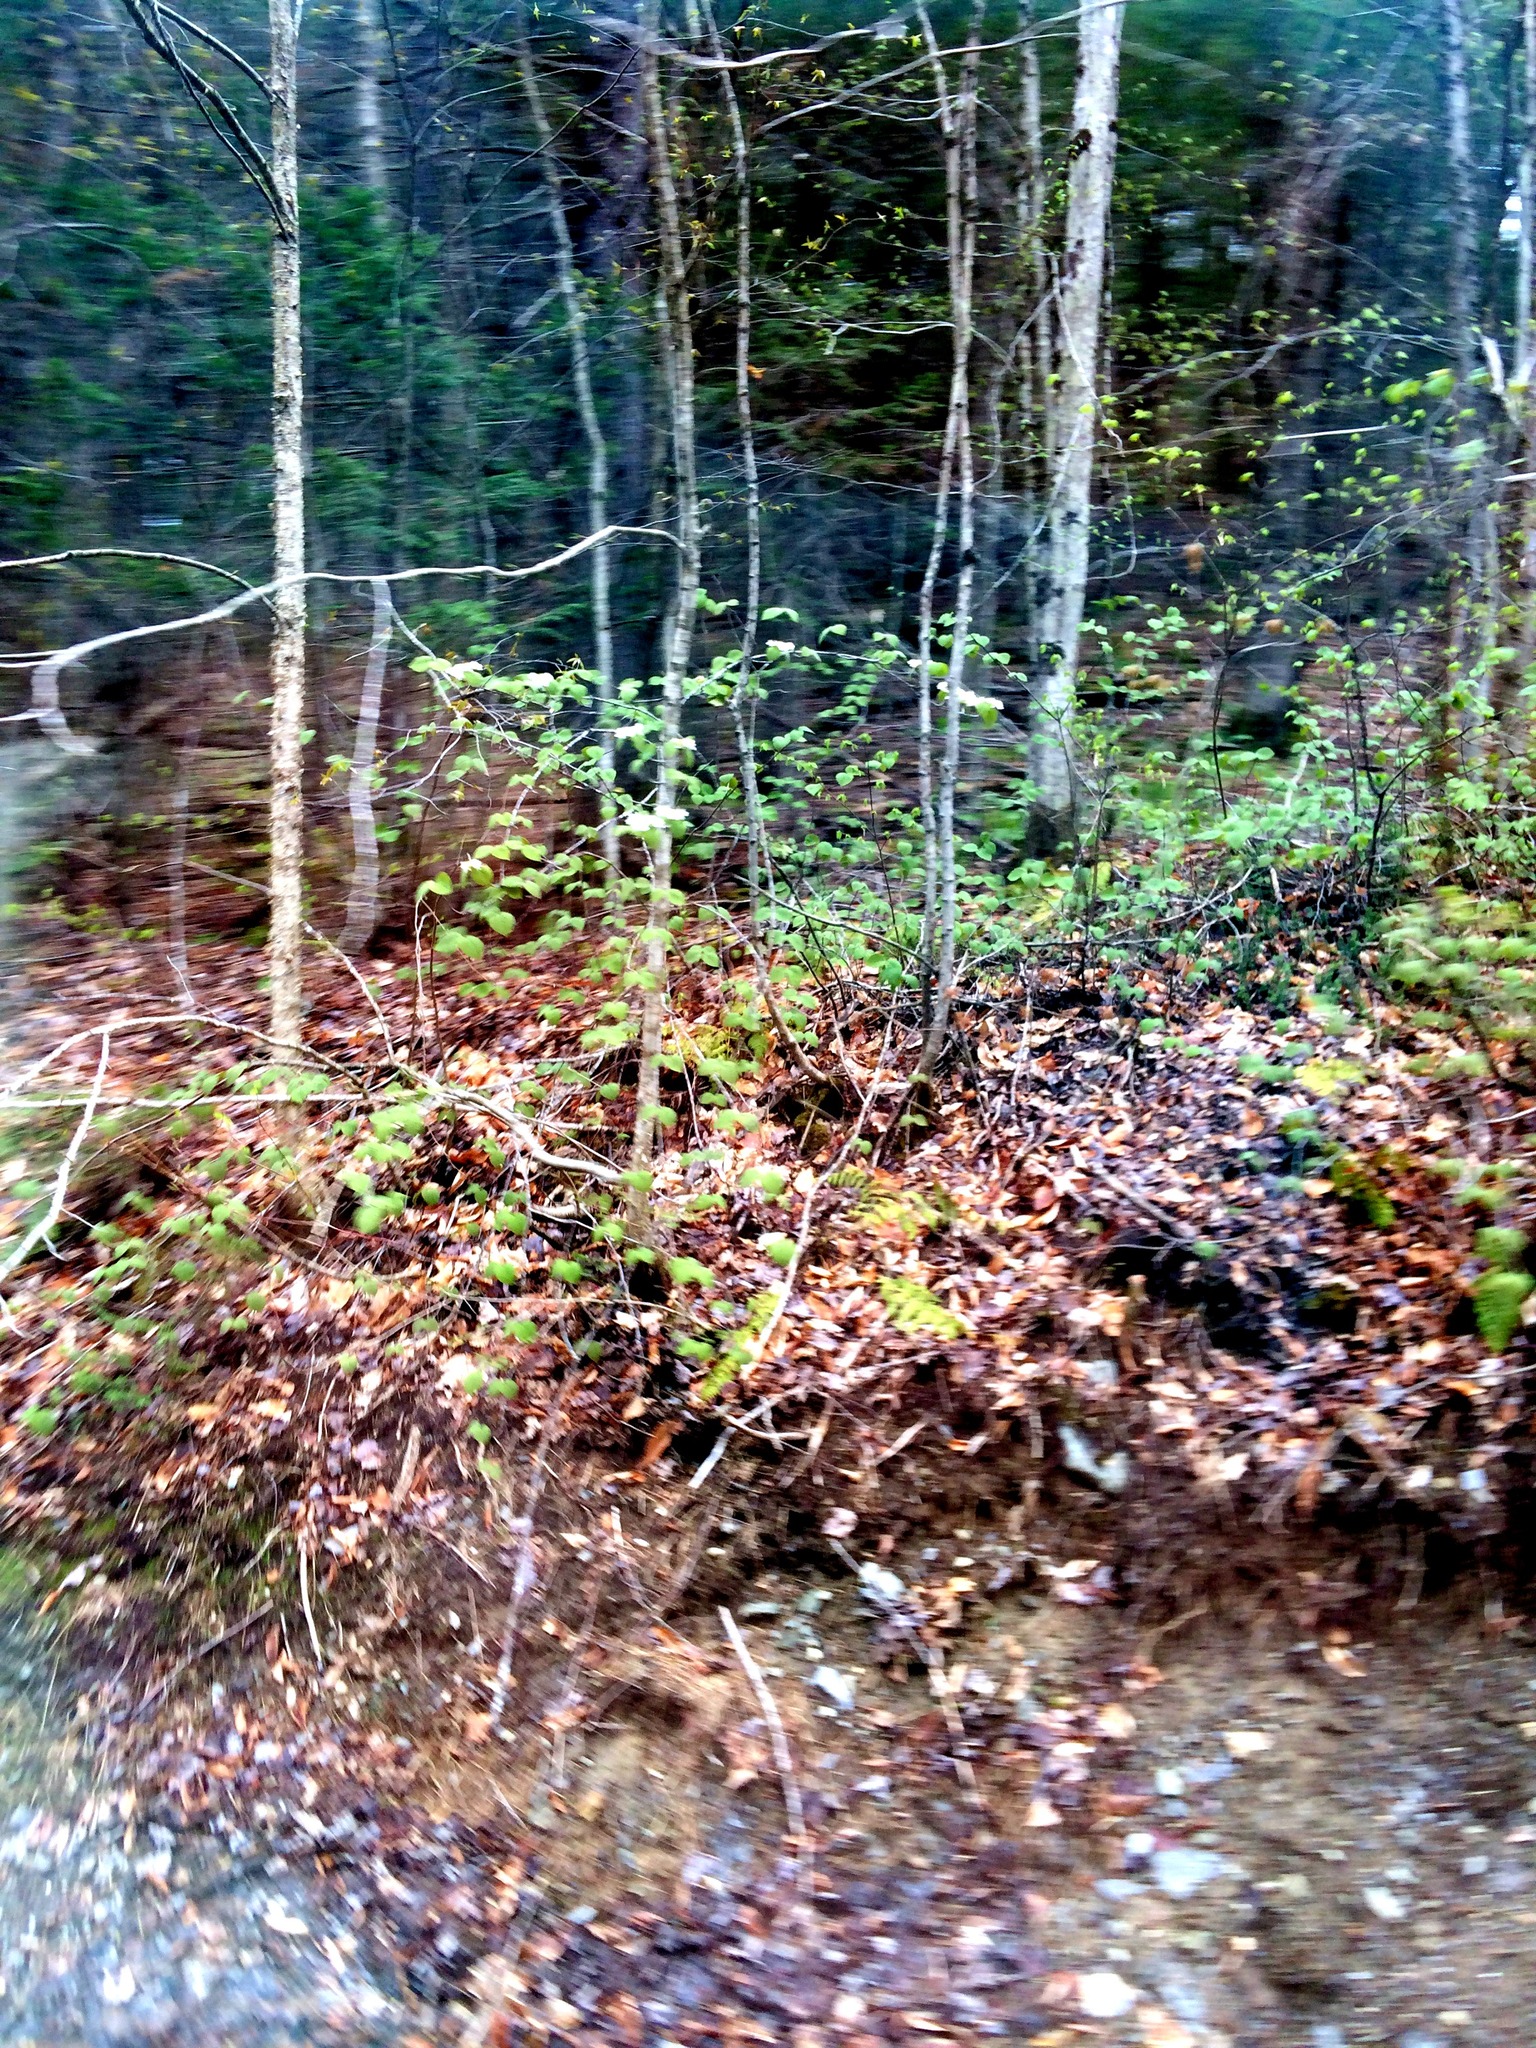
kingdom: Plantae
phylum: Tracheophyta
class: Magnoliopsida
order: Dipsacales
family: Viburnaceae
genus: Viburnum
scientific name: Viburnum lantanoides
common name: Hobblebush
